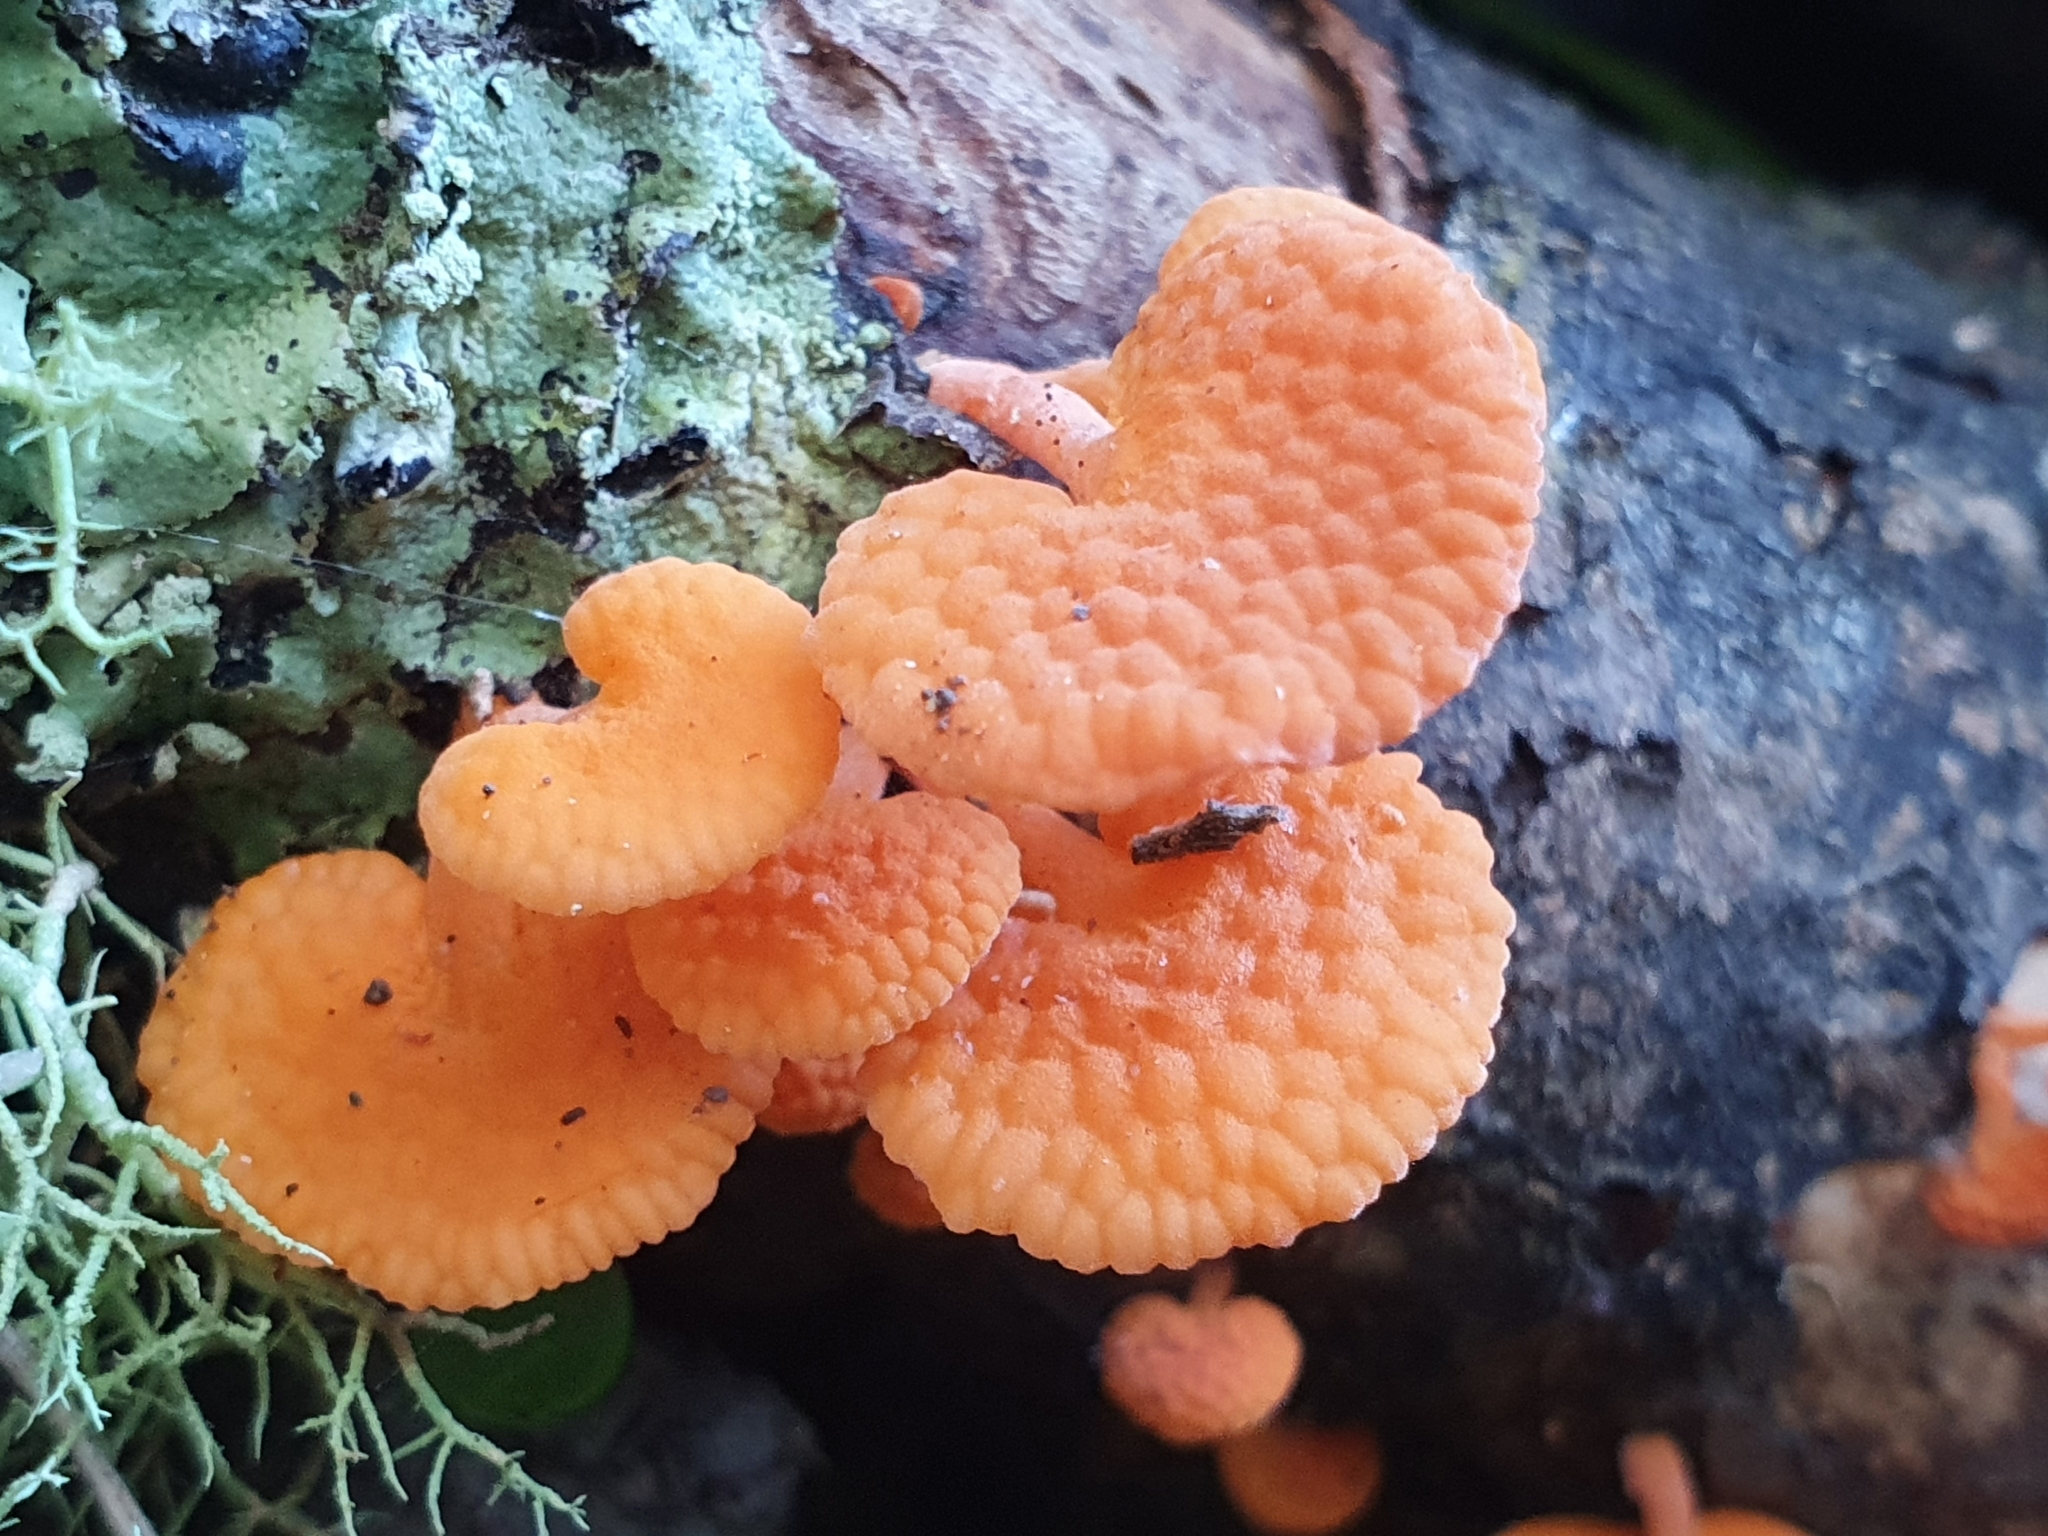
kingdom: Fungi
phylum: Basidiomycota
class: Agaricomycetes
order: Agaricales
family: Mycenaceae
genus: Favolaschia
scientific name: Favolaschia claudopus
